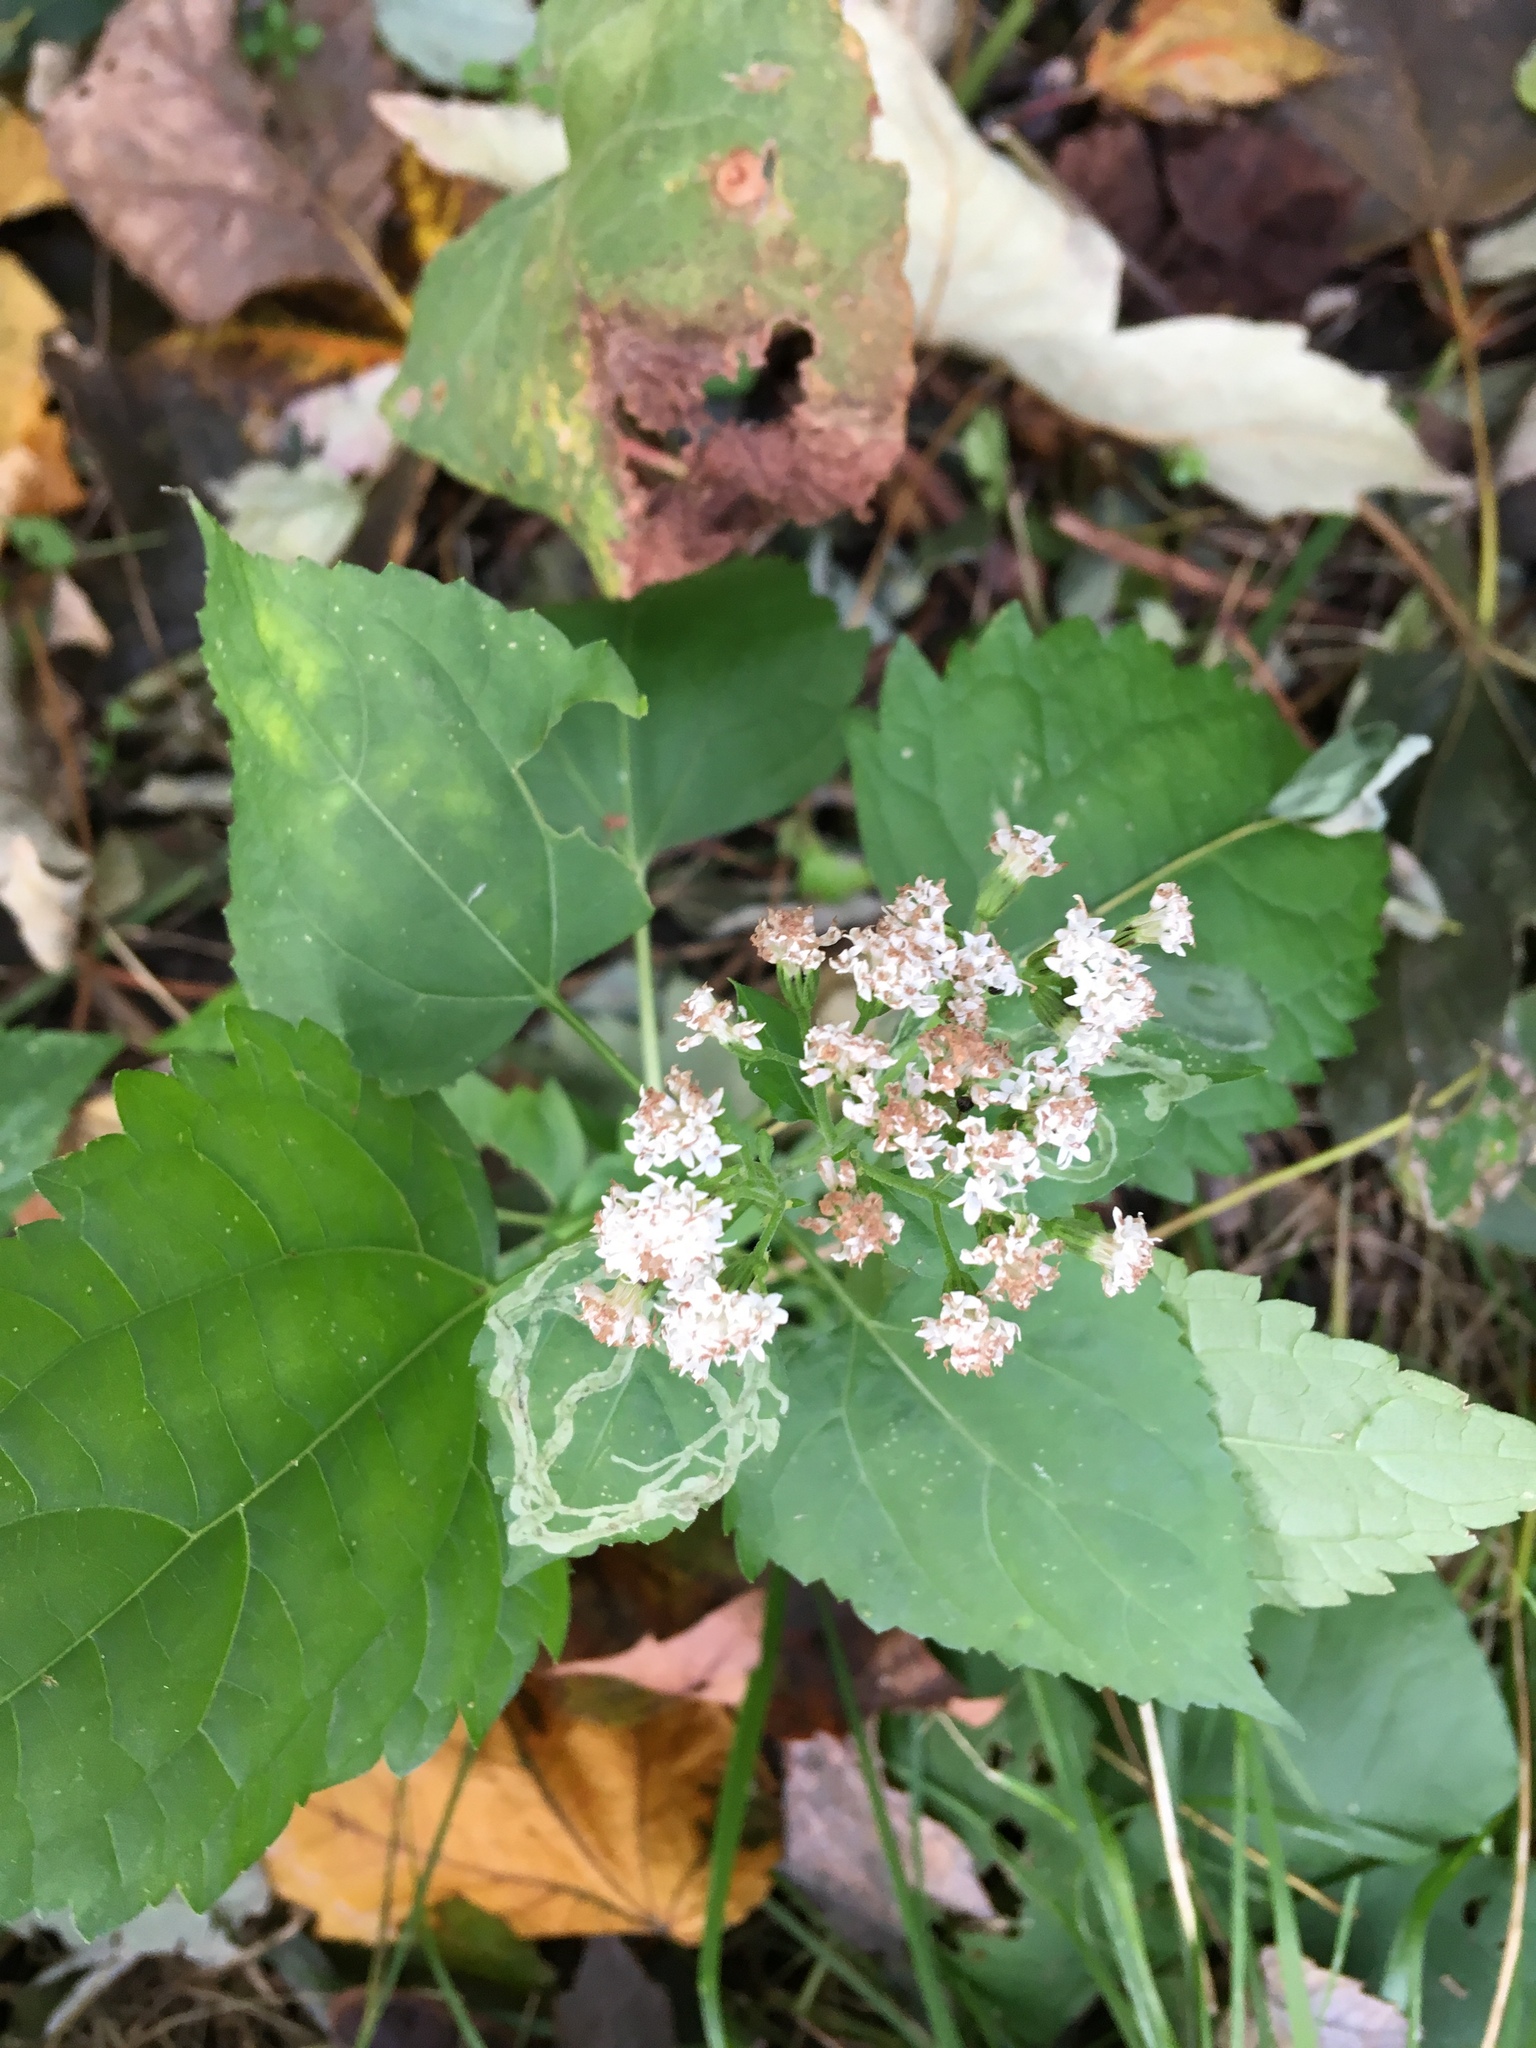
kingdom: Plantae
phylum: Tracheophyta
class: Magnoliopsida
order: Asterales
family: Asteraceae
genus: Ageratina
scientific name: Ageratina altissima
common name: White snakeroot
